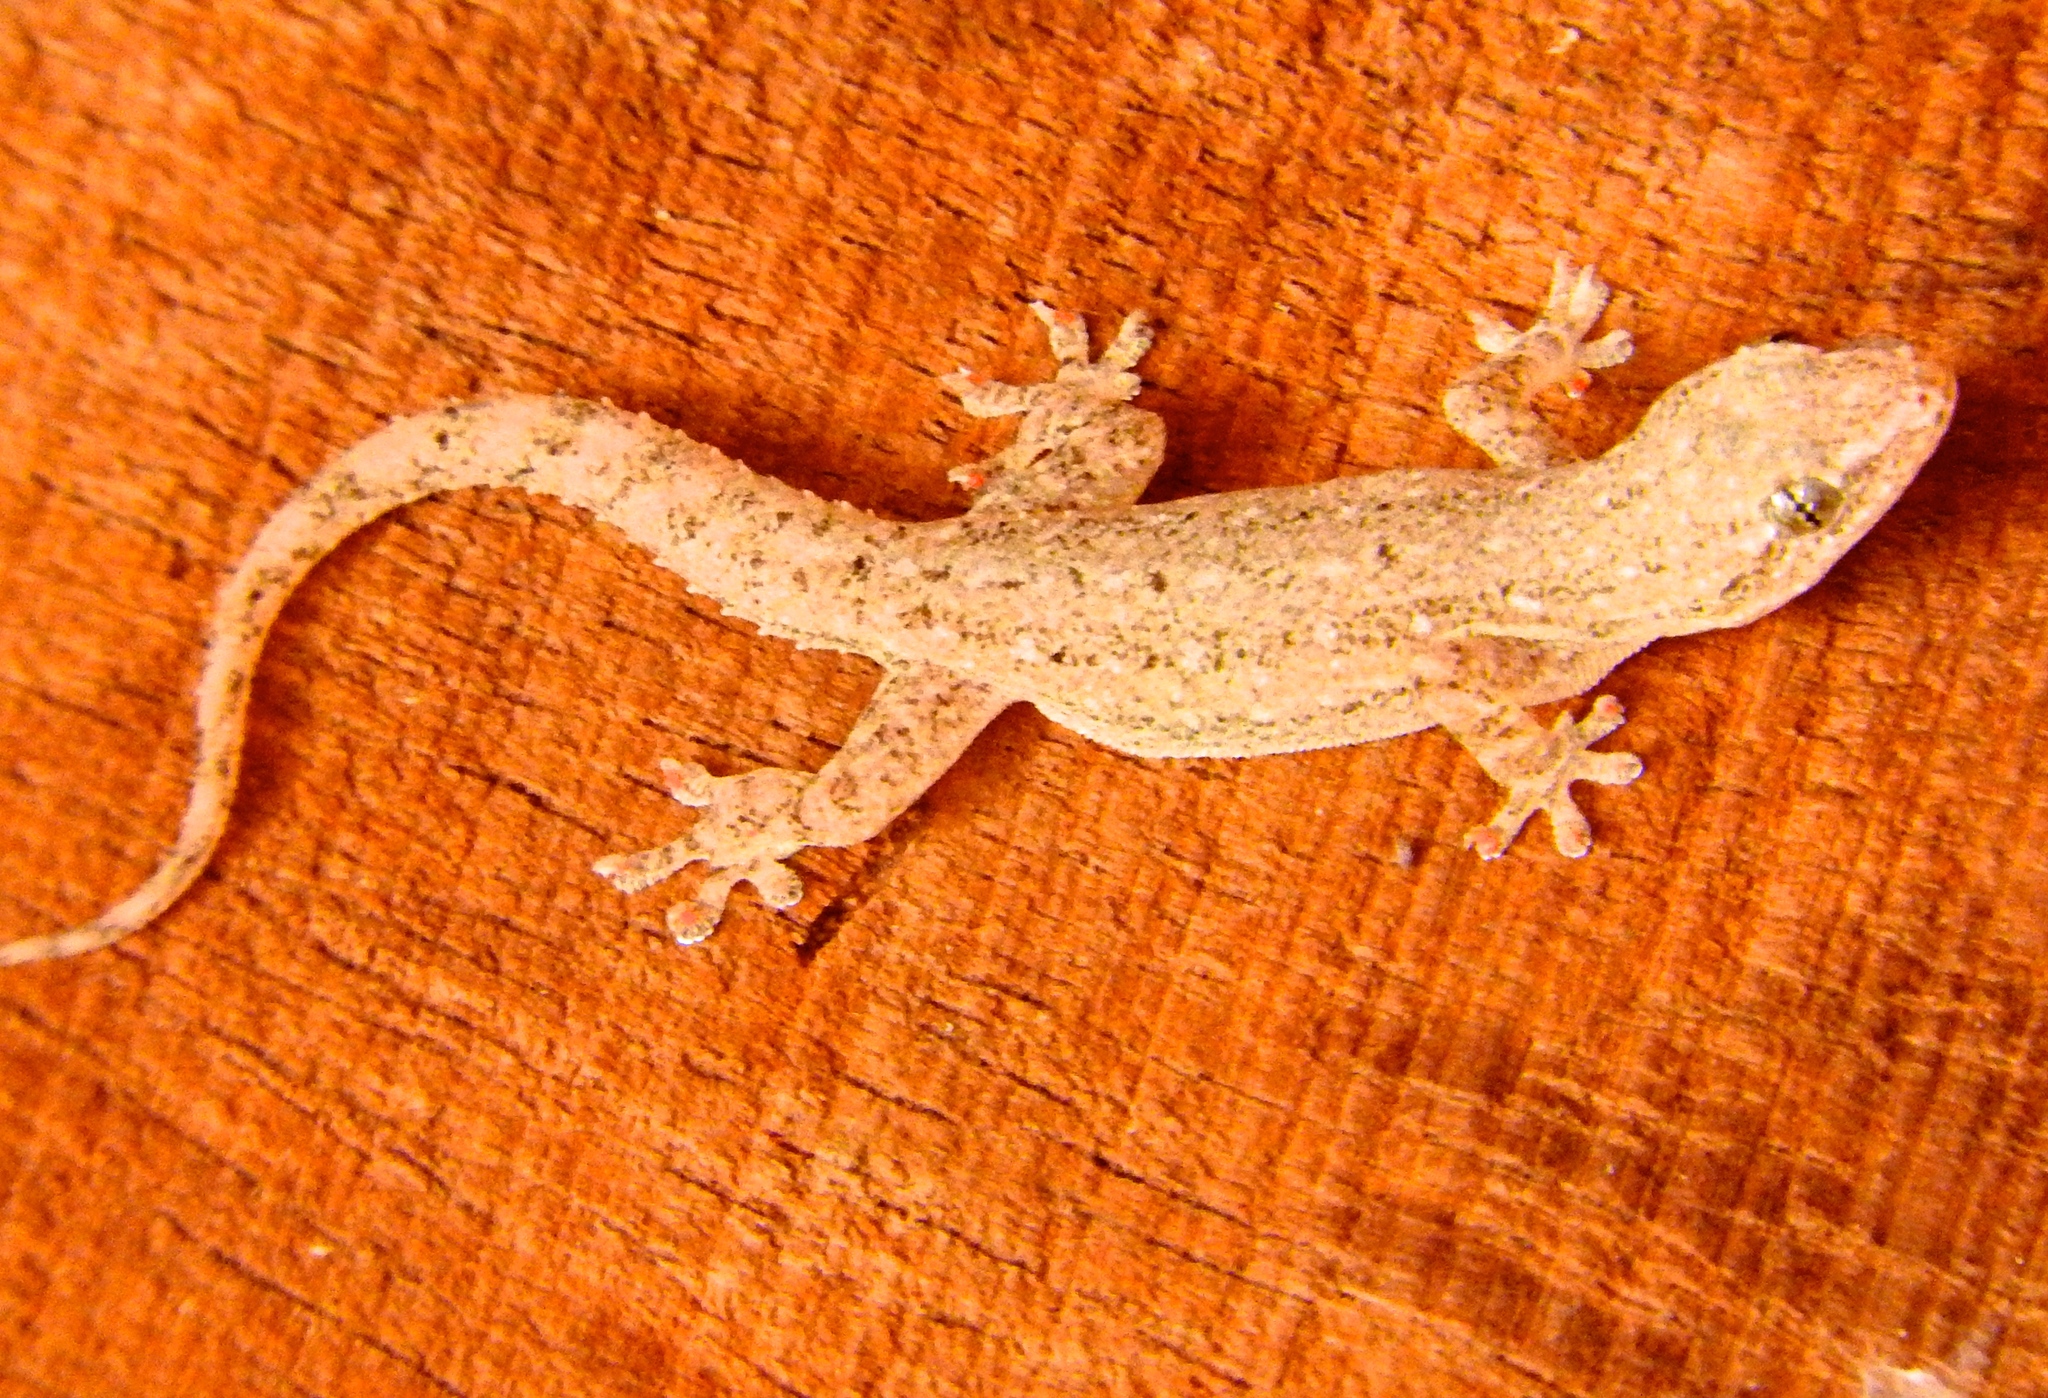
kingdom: Animalia
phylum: Chordata
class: Squamata
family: Gekkonidae
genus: Hemidactylus
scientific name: Hemidactylus frenatus
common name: Common house gecko
